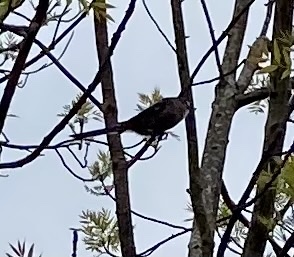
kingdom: Animalia
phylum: Chordata
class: Aves
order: Passeriformes
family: Aegithalidae
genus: Aegithalos
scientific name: Aegithalos caudatus
